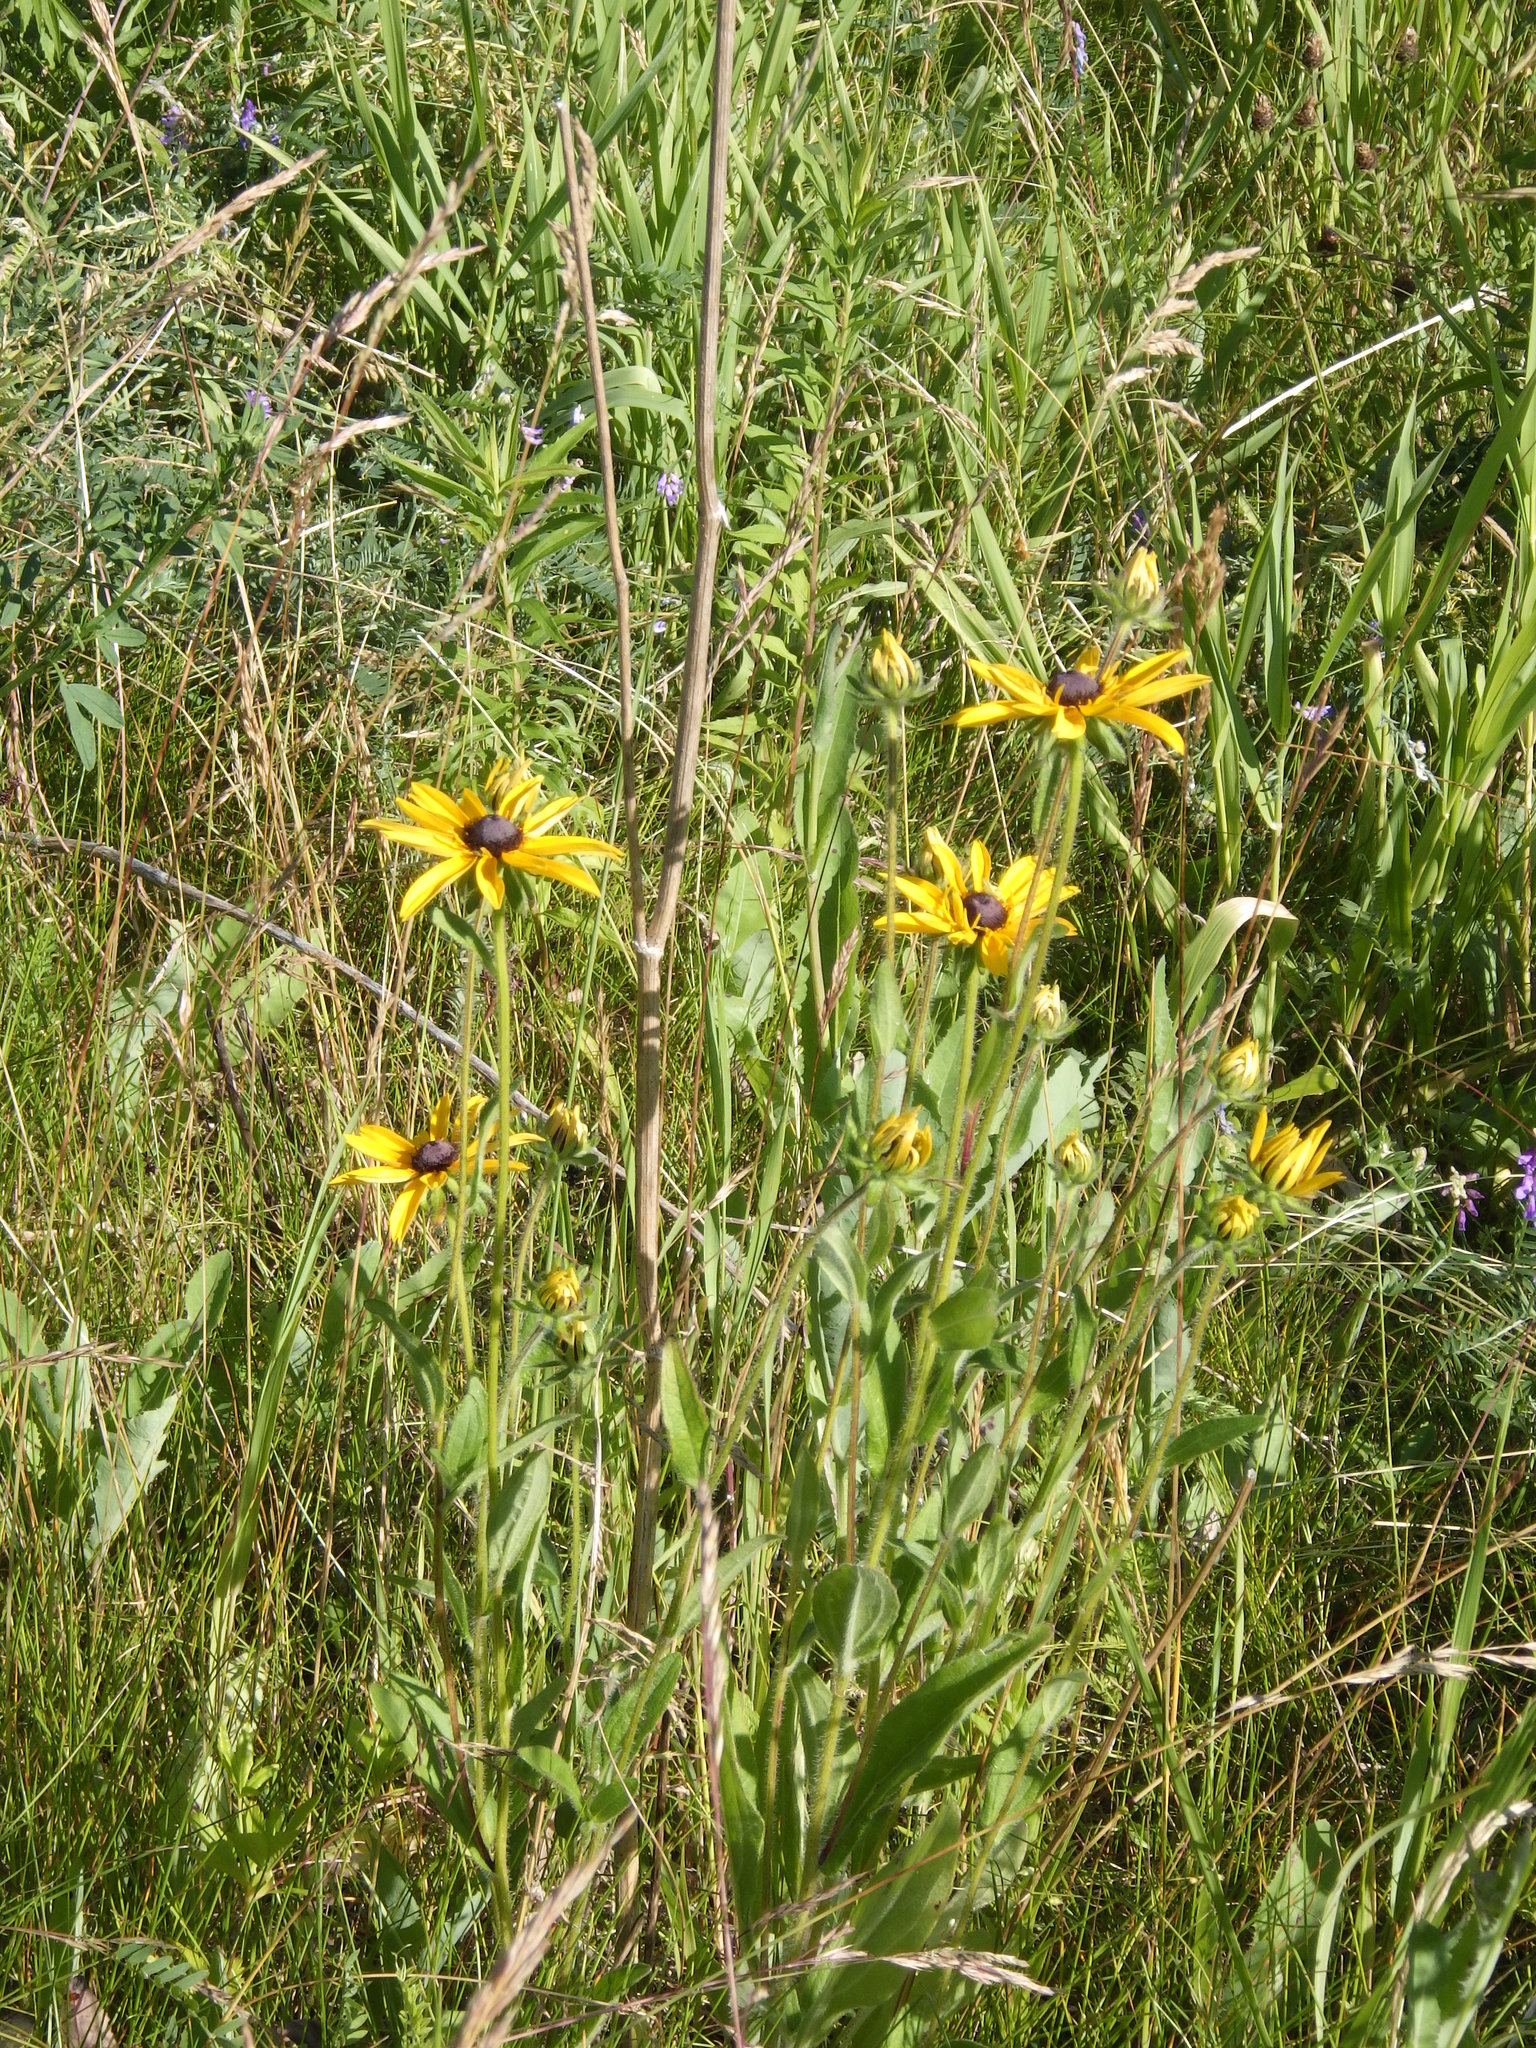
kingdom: Plantae
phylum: Tracheophyta
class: Magnoliopsida
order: Asterales
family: Asteraceae
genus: Rudbeckia
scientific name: Rudbeckia hirta
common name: Black-eyed-susan
